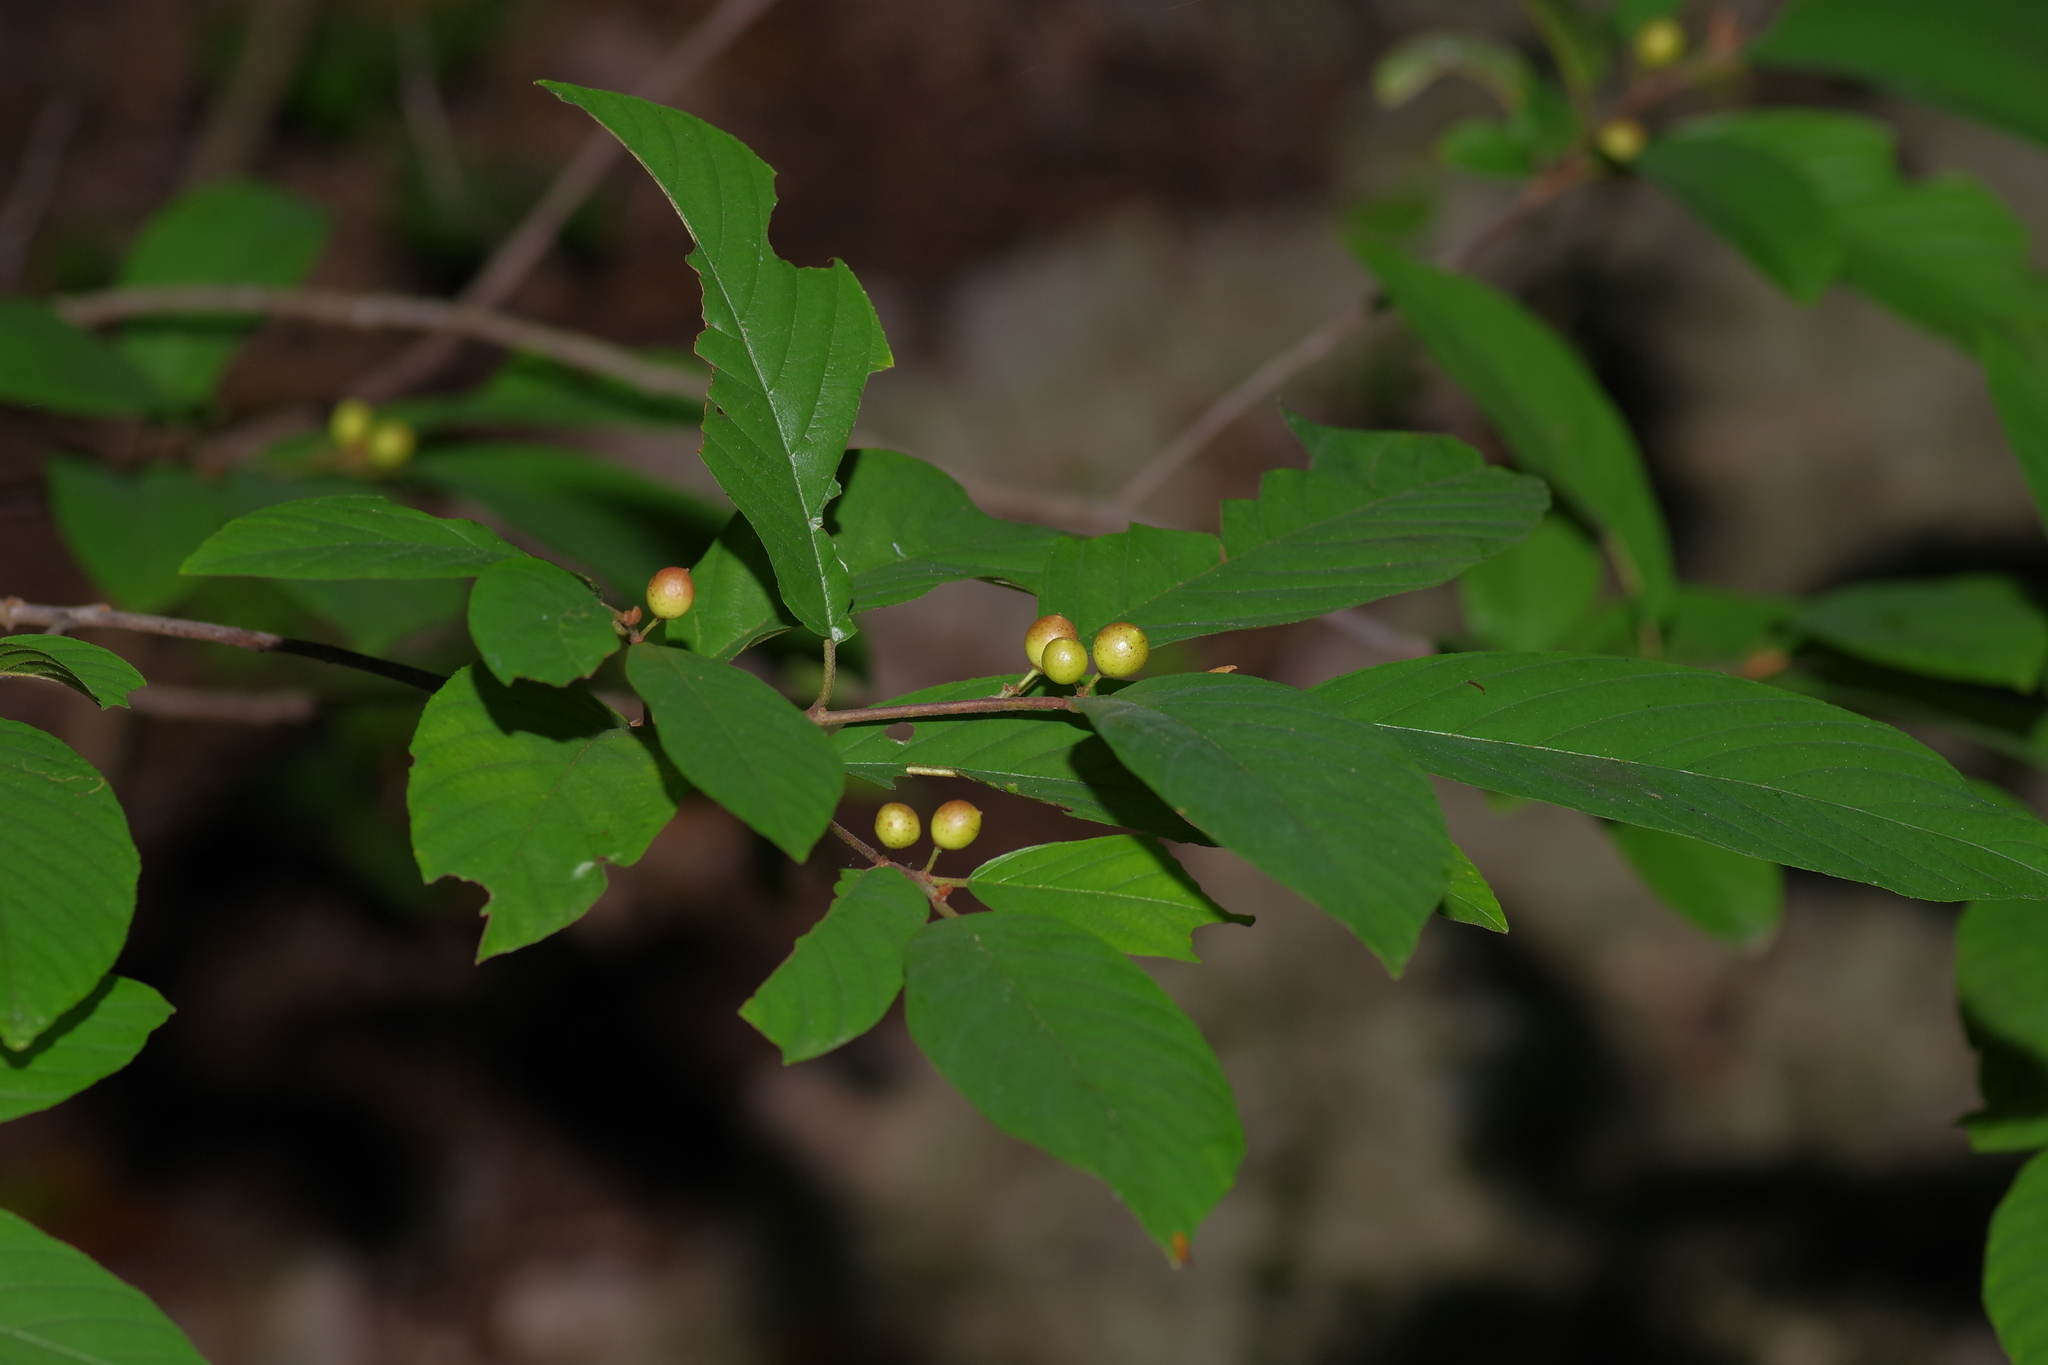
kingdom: Plantae
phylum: Tracheophyta
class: Magnoliopsida
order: Rosales
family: Rhamnaceae
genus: Frangula
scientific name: Frangula caroliniana
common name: Carolina buckthorn
